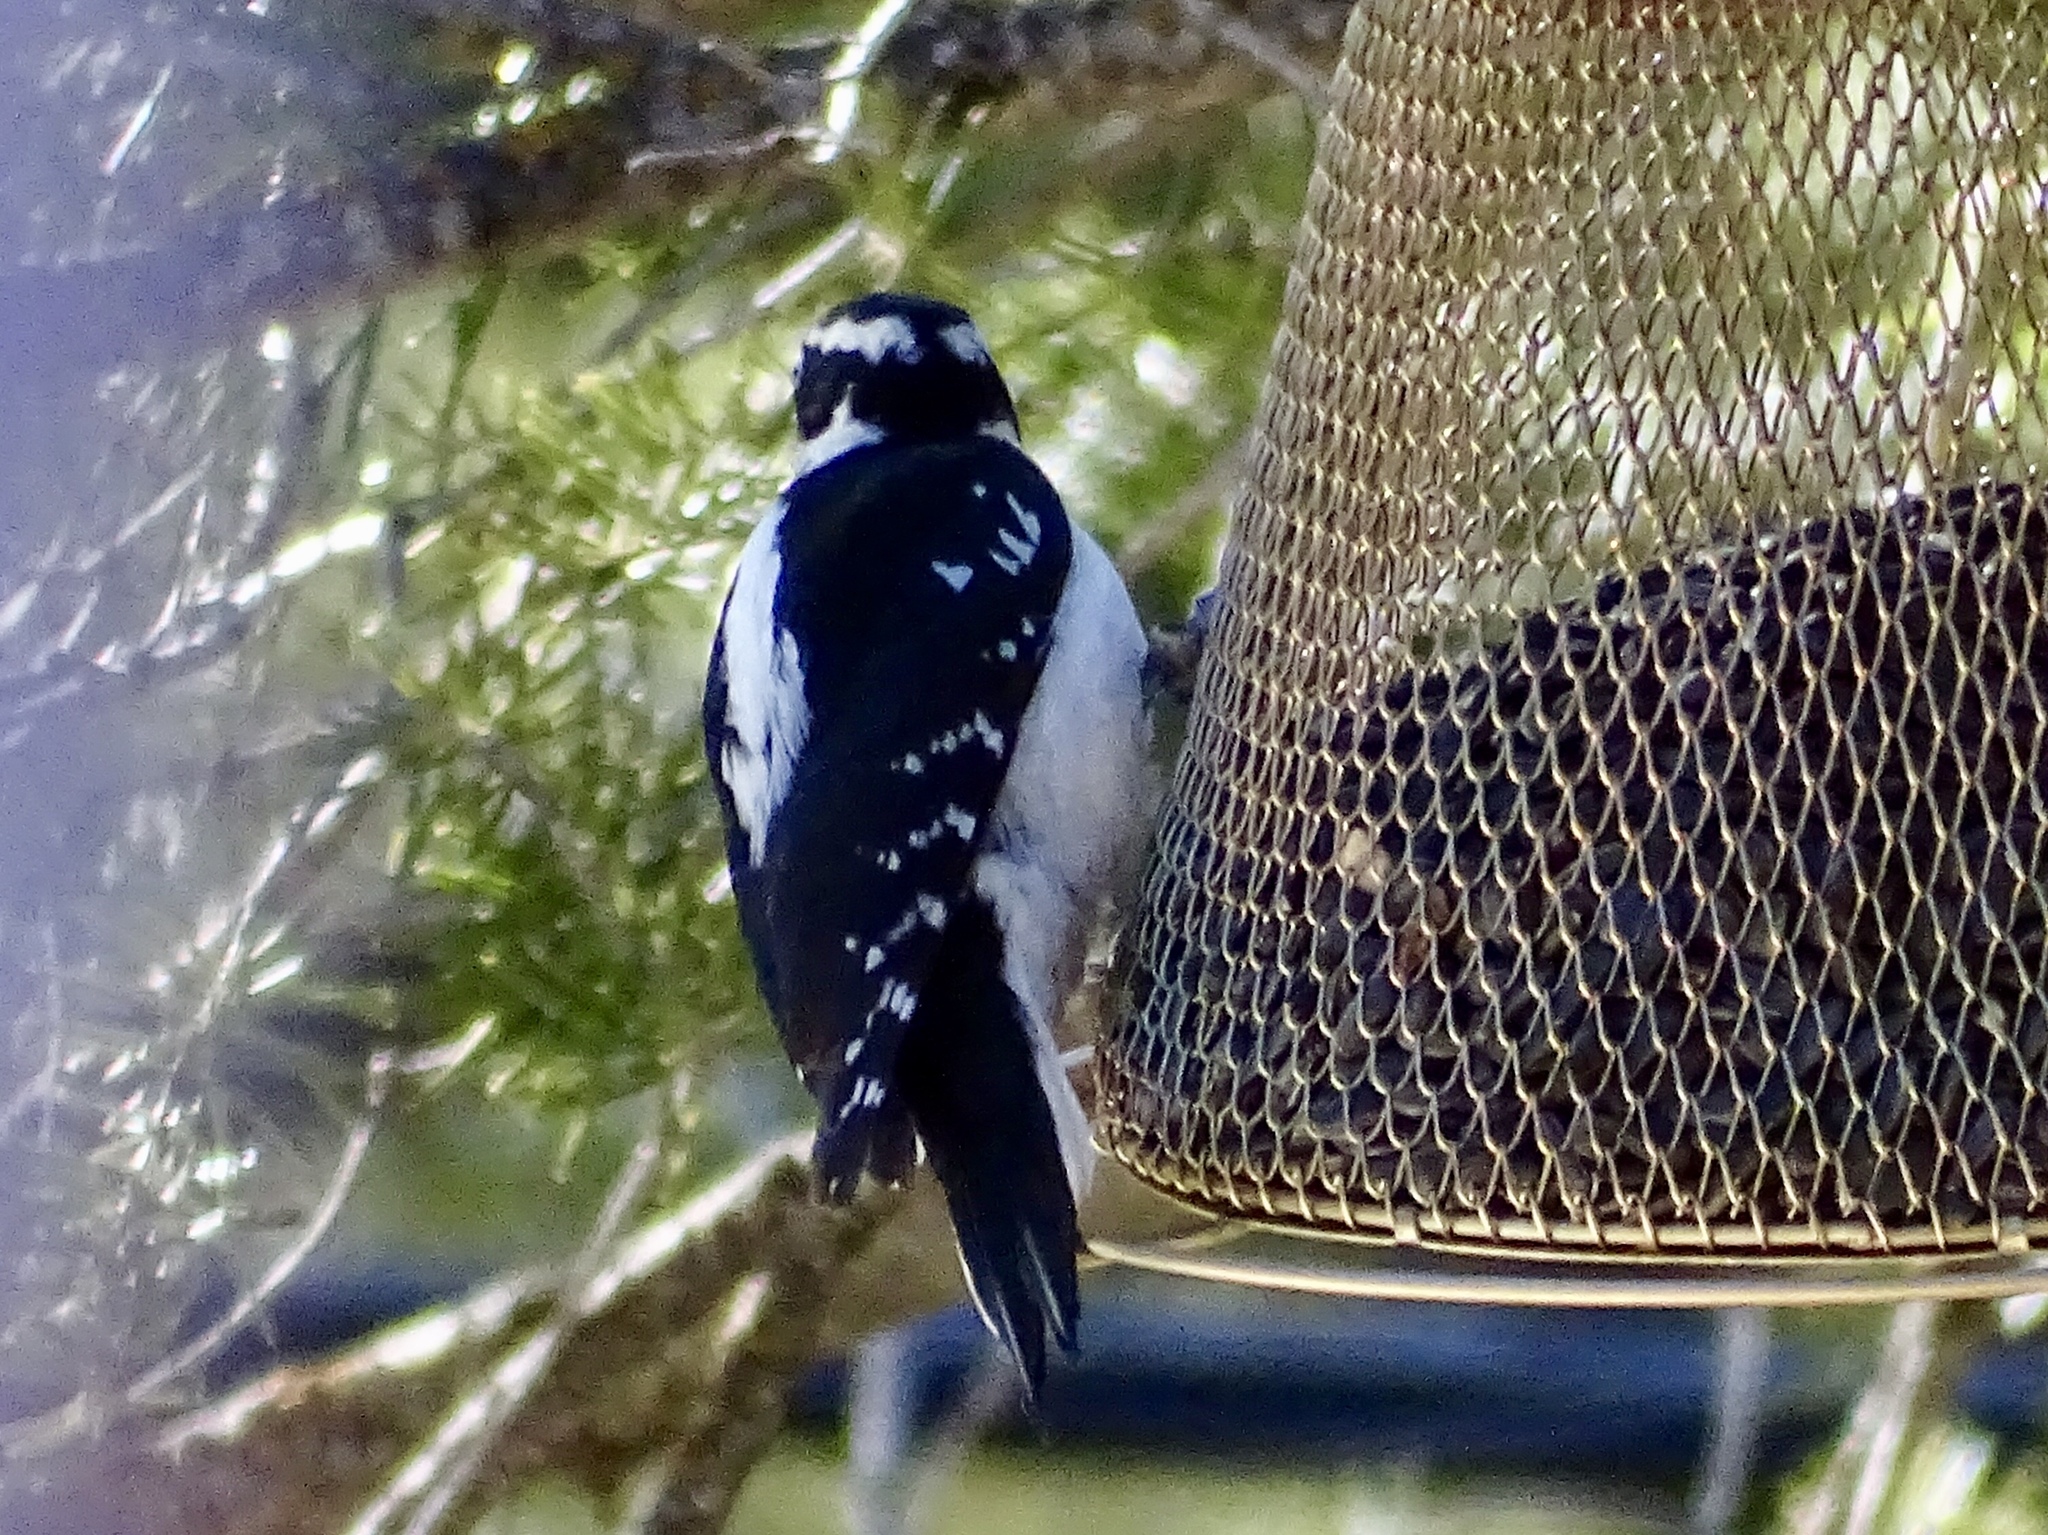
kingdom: Animalia
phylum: Chordata
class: Aves
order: Piciformes
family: Picidae
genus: Leuconotopicus
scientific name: Leuconotopicus villosus
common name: Hairy woodpecker
